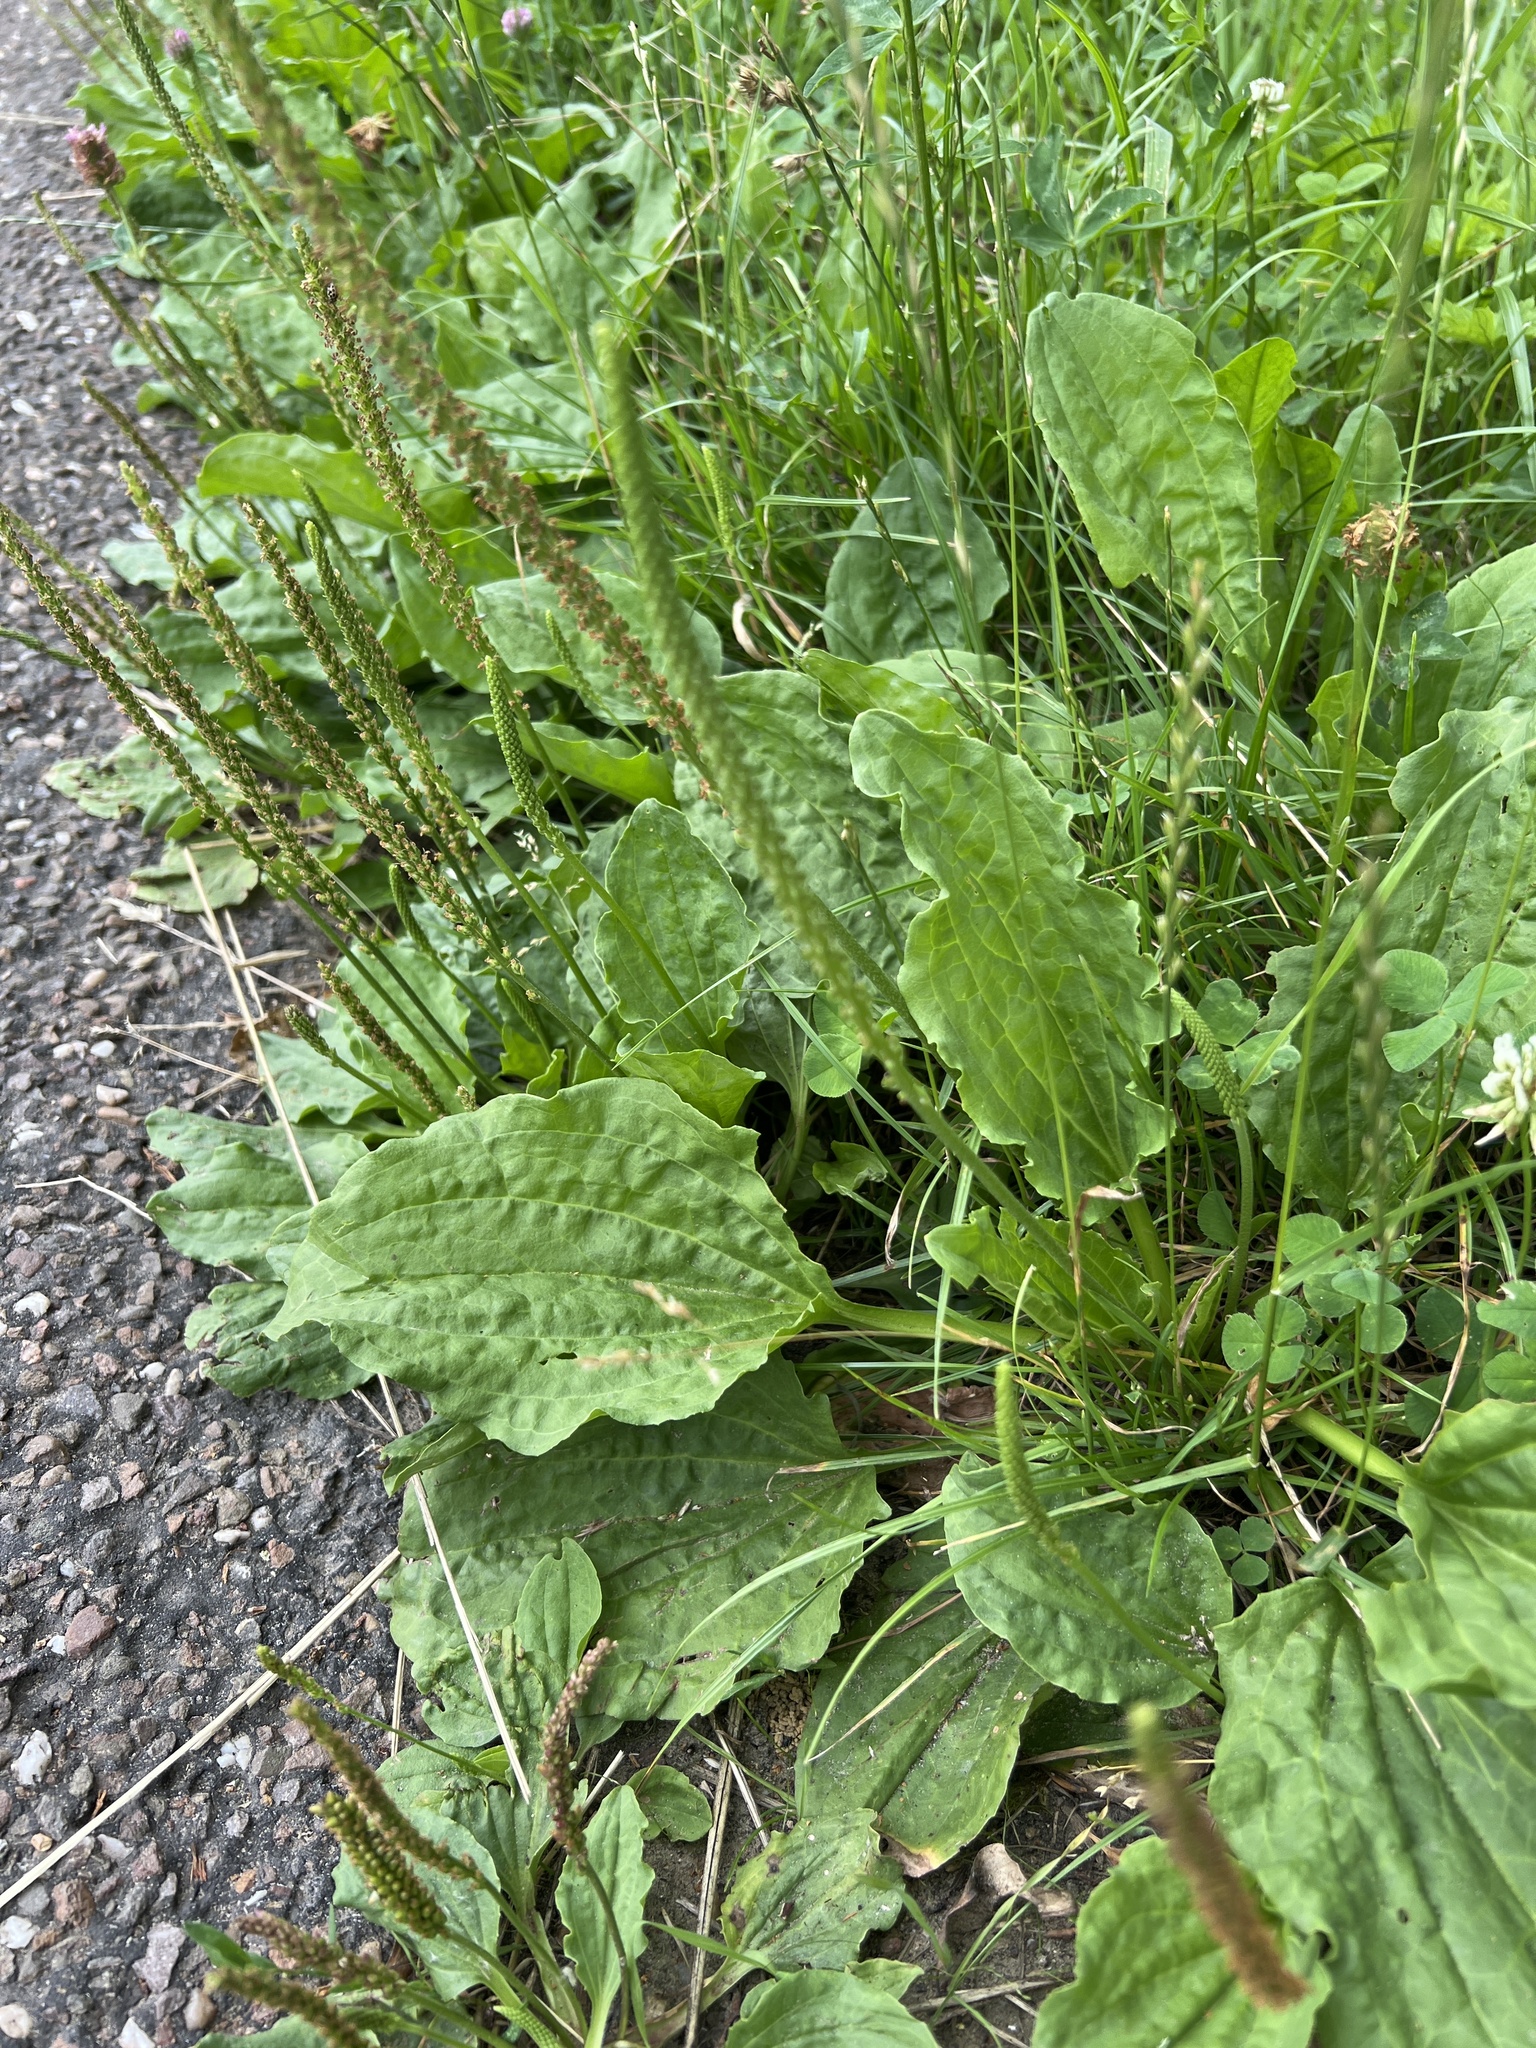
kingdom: Plantae
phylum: Tracheophyta
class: Magnoliopsida
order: Lamiales
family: Plantaginaceae
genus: Plantago
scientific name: Plantago major
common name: Common plantain
